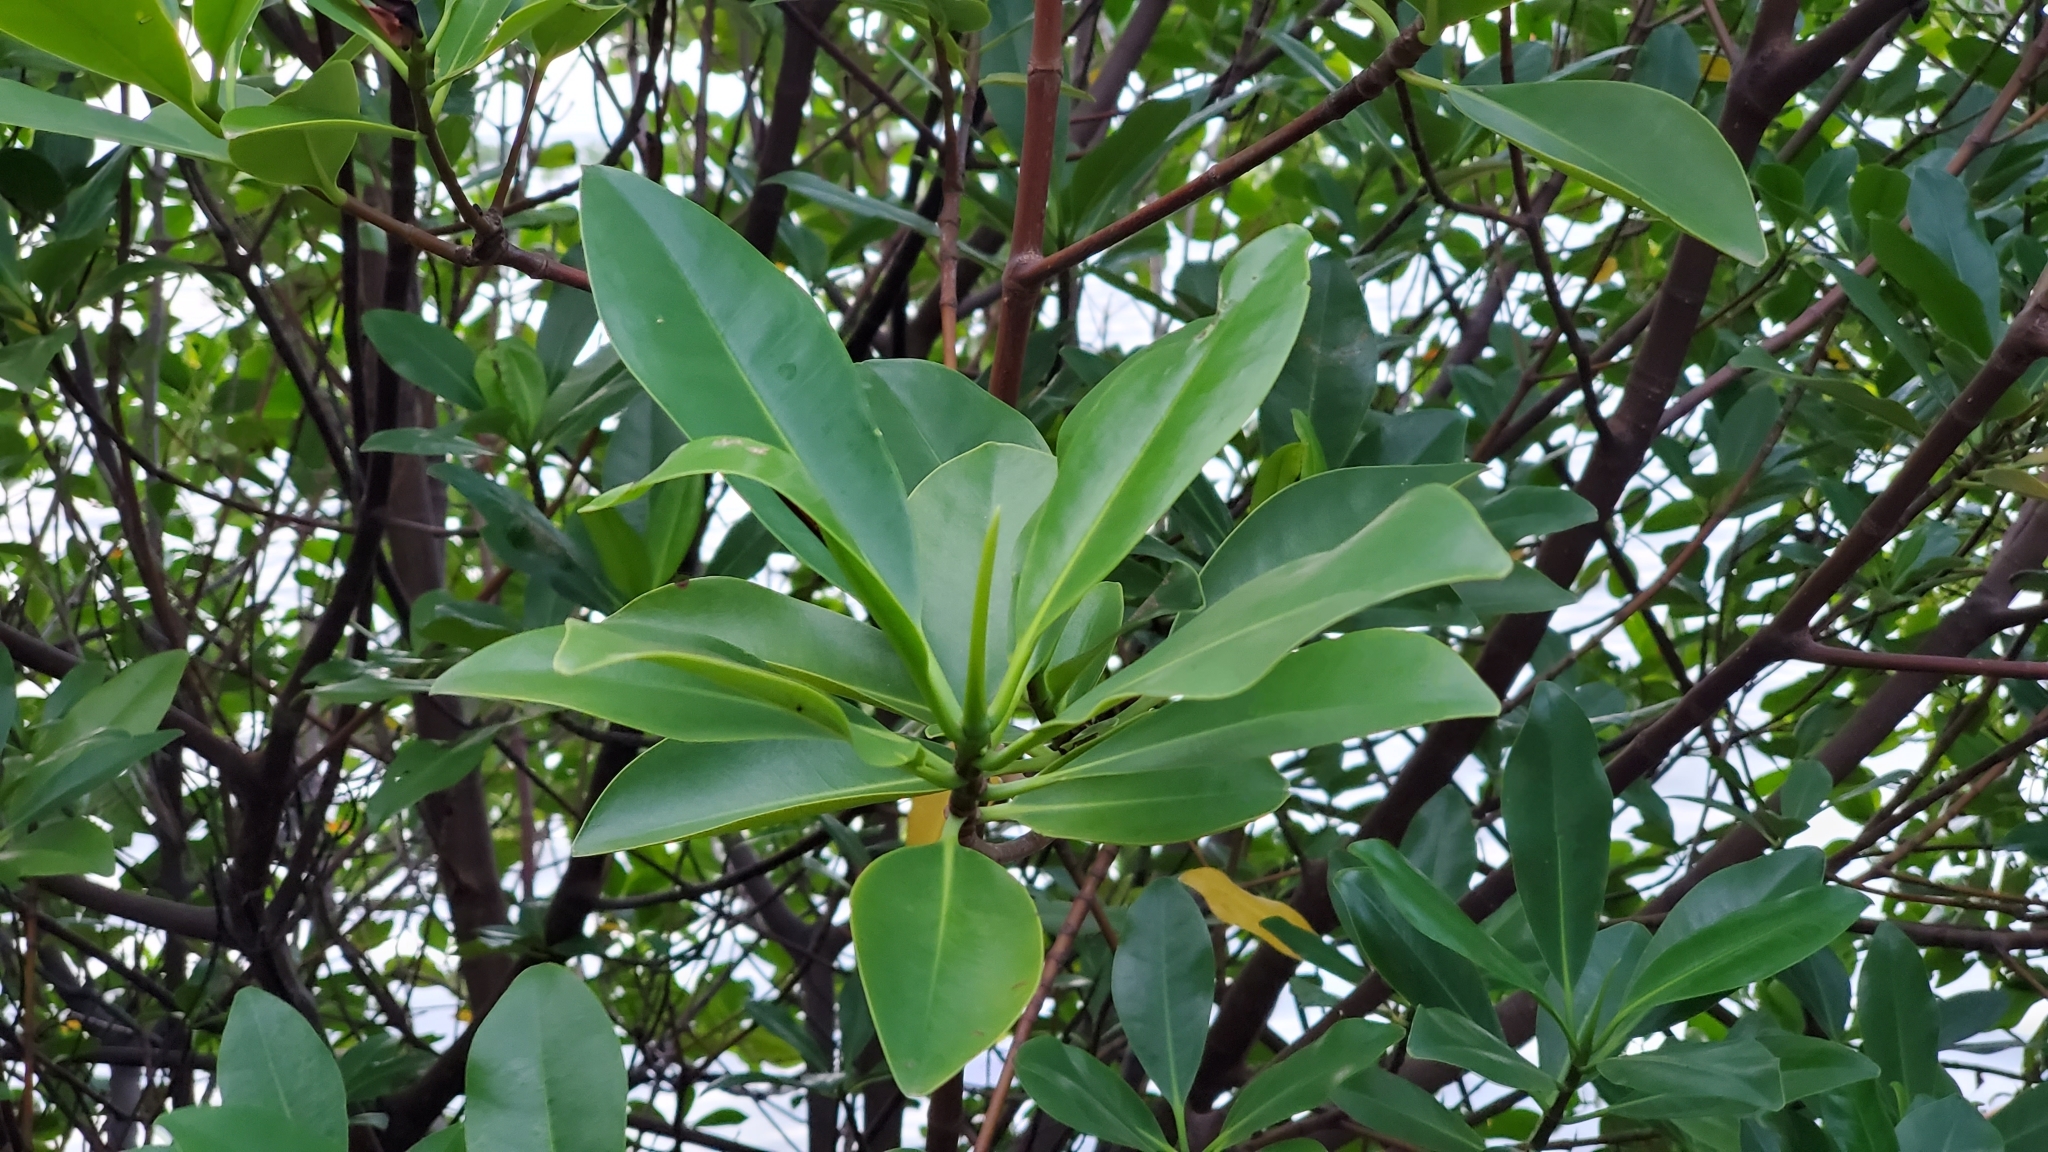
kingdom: Plantae
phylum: Tracheophyta
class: Magnoliopsida
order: Malpighiales
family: Rhizophoraceae
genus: Rhizophora
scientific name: Rhizophora samoensis
